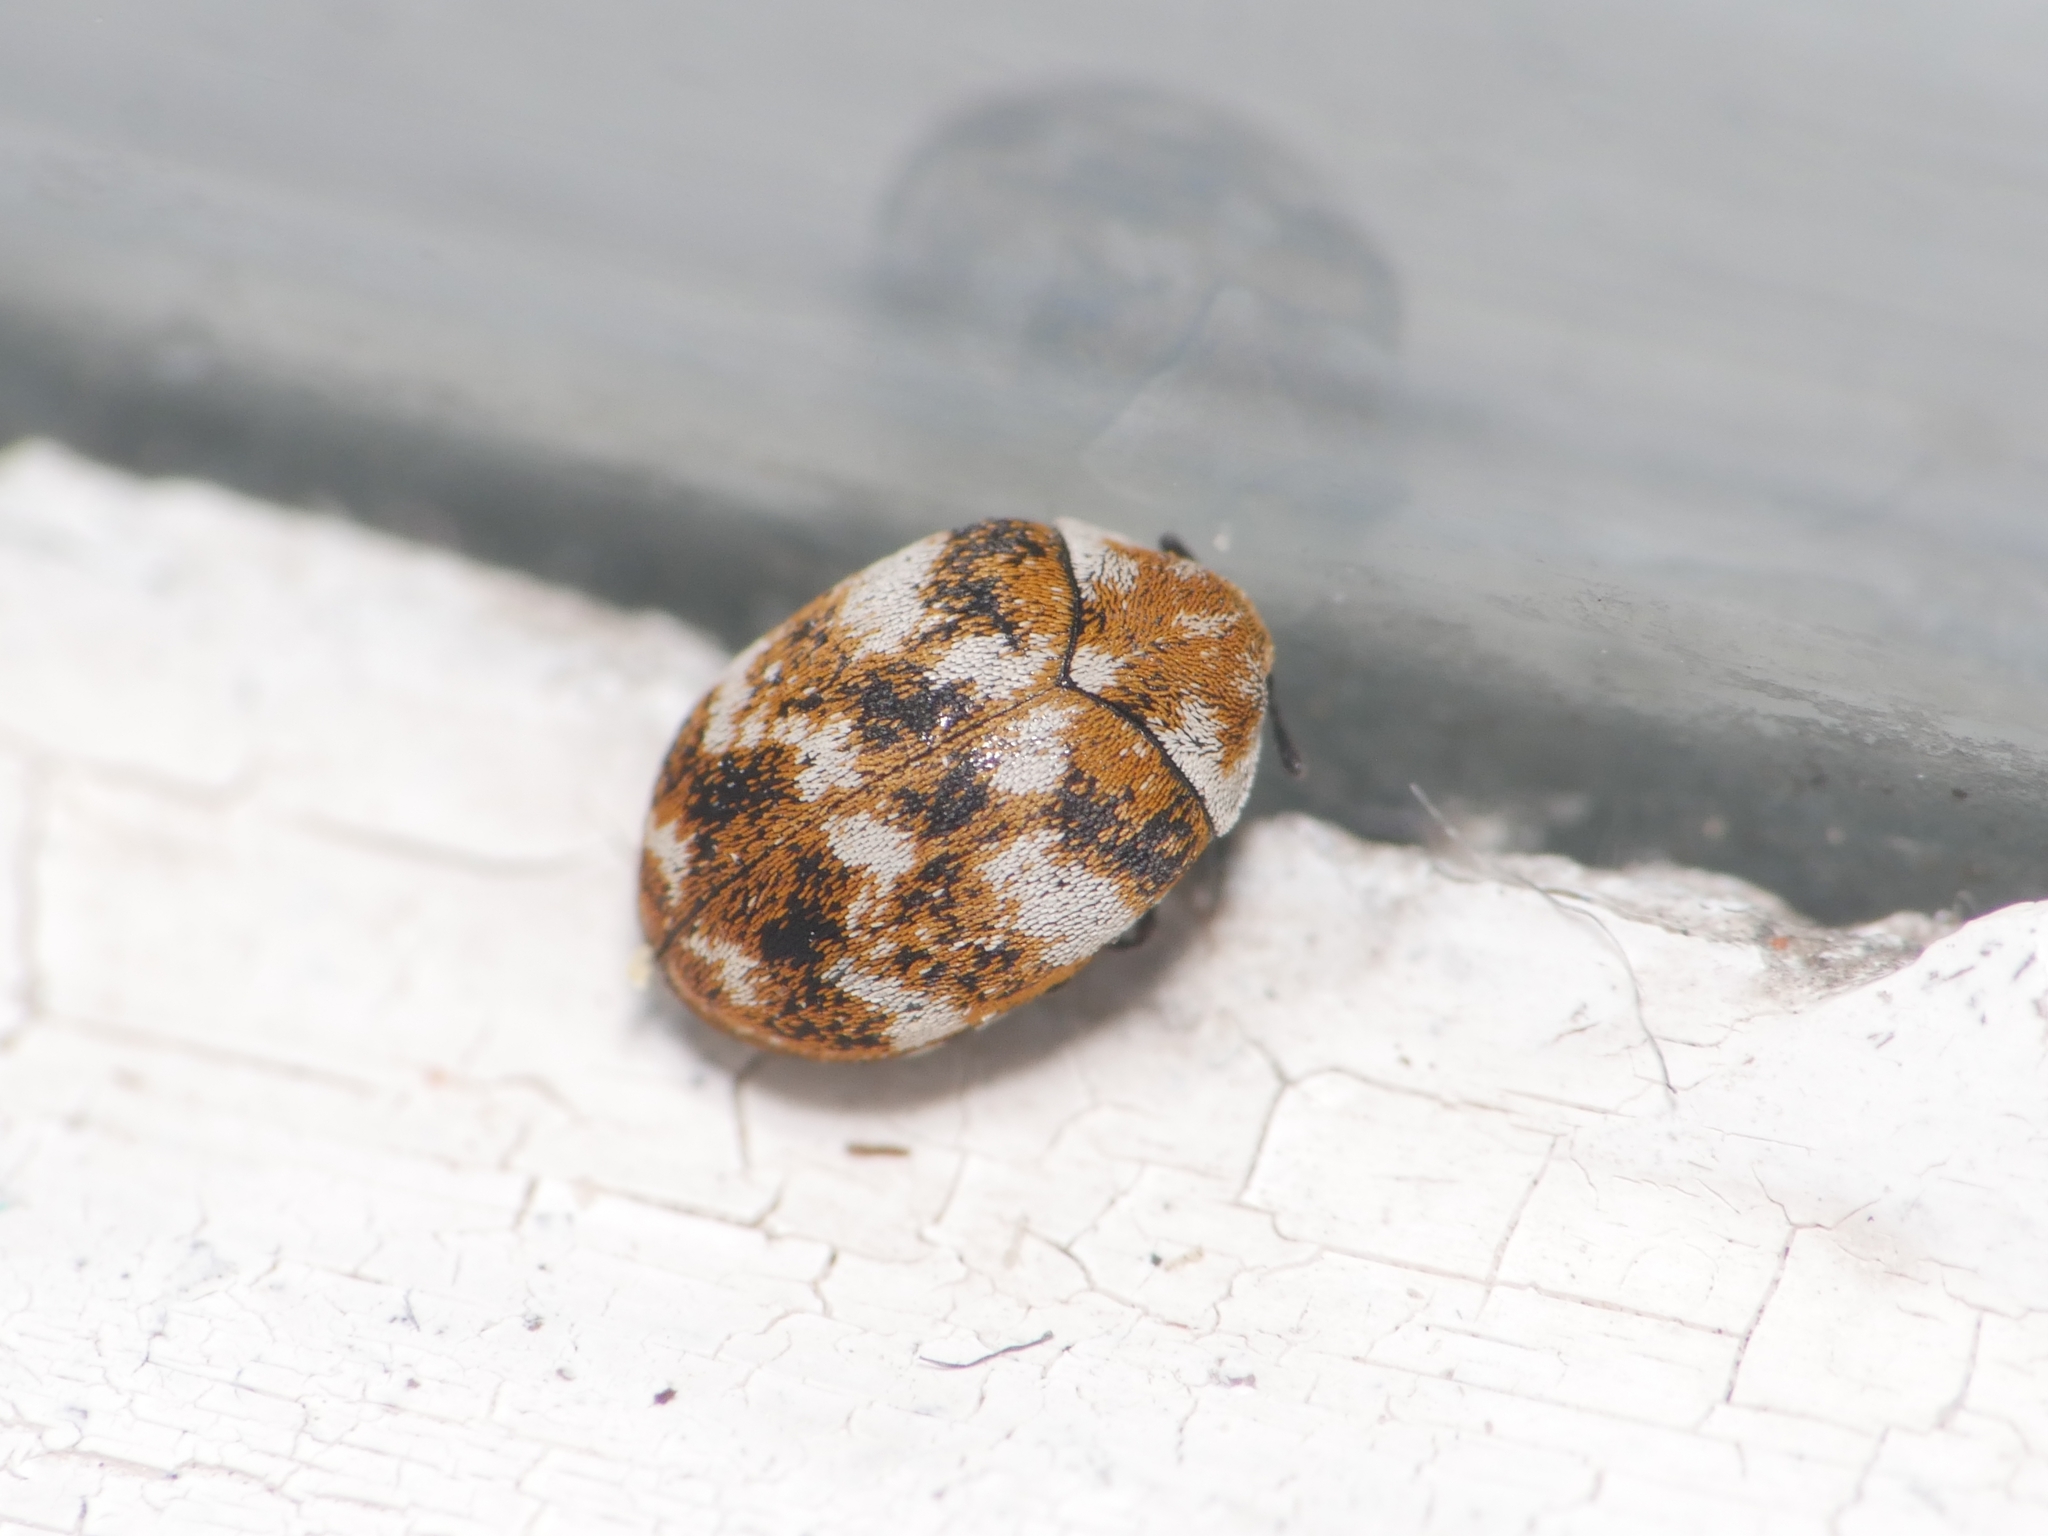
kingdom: Animalia
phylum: Arthropoda
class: Insecta
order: Coleoptera
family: Dermestidae
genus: Anthrenus
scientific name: Anthrenus verbasci
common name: Varied carpet beetle
